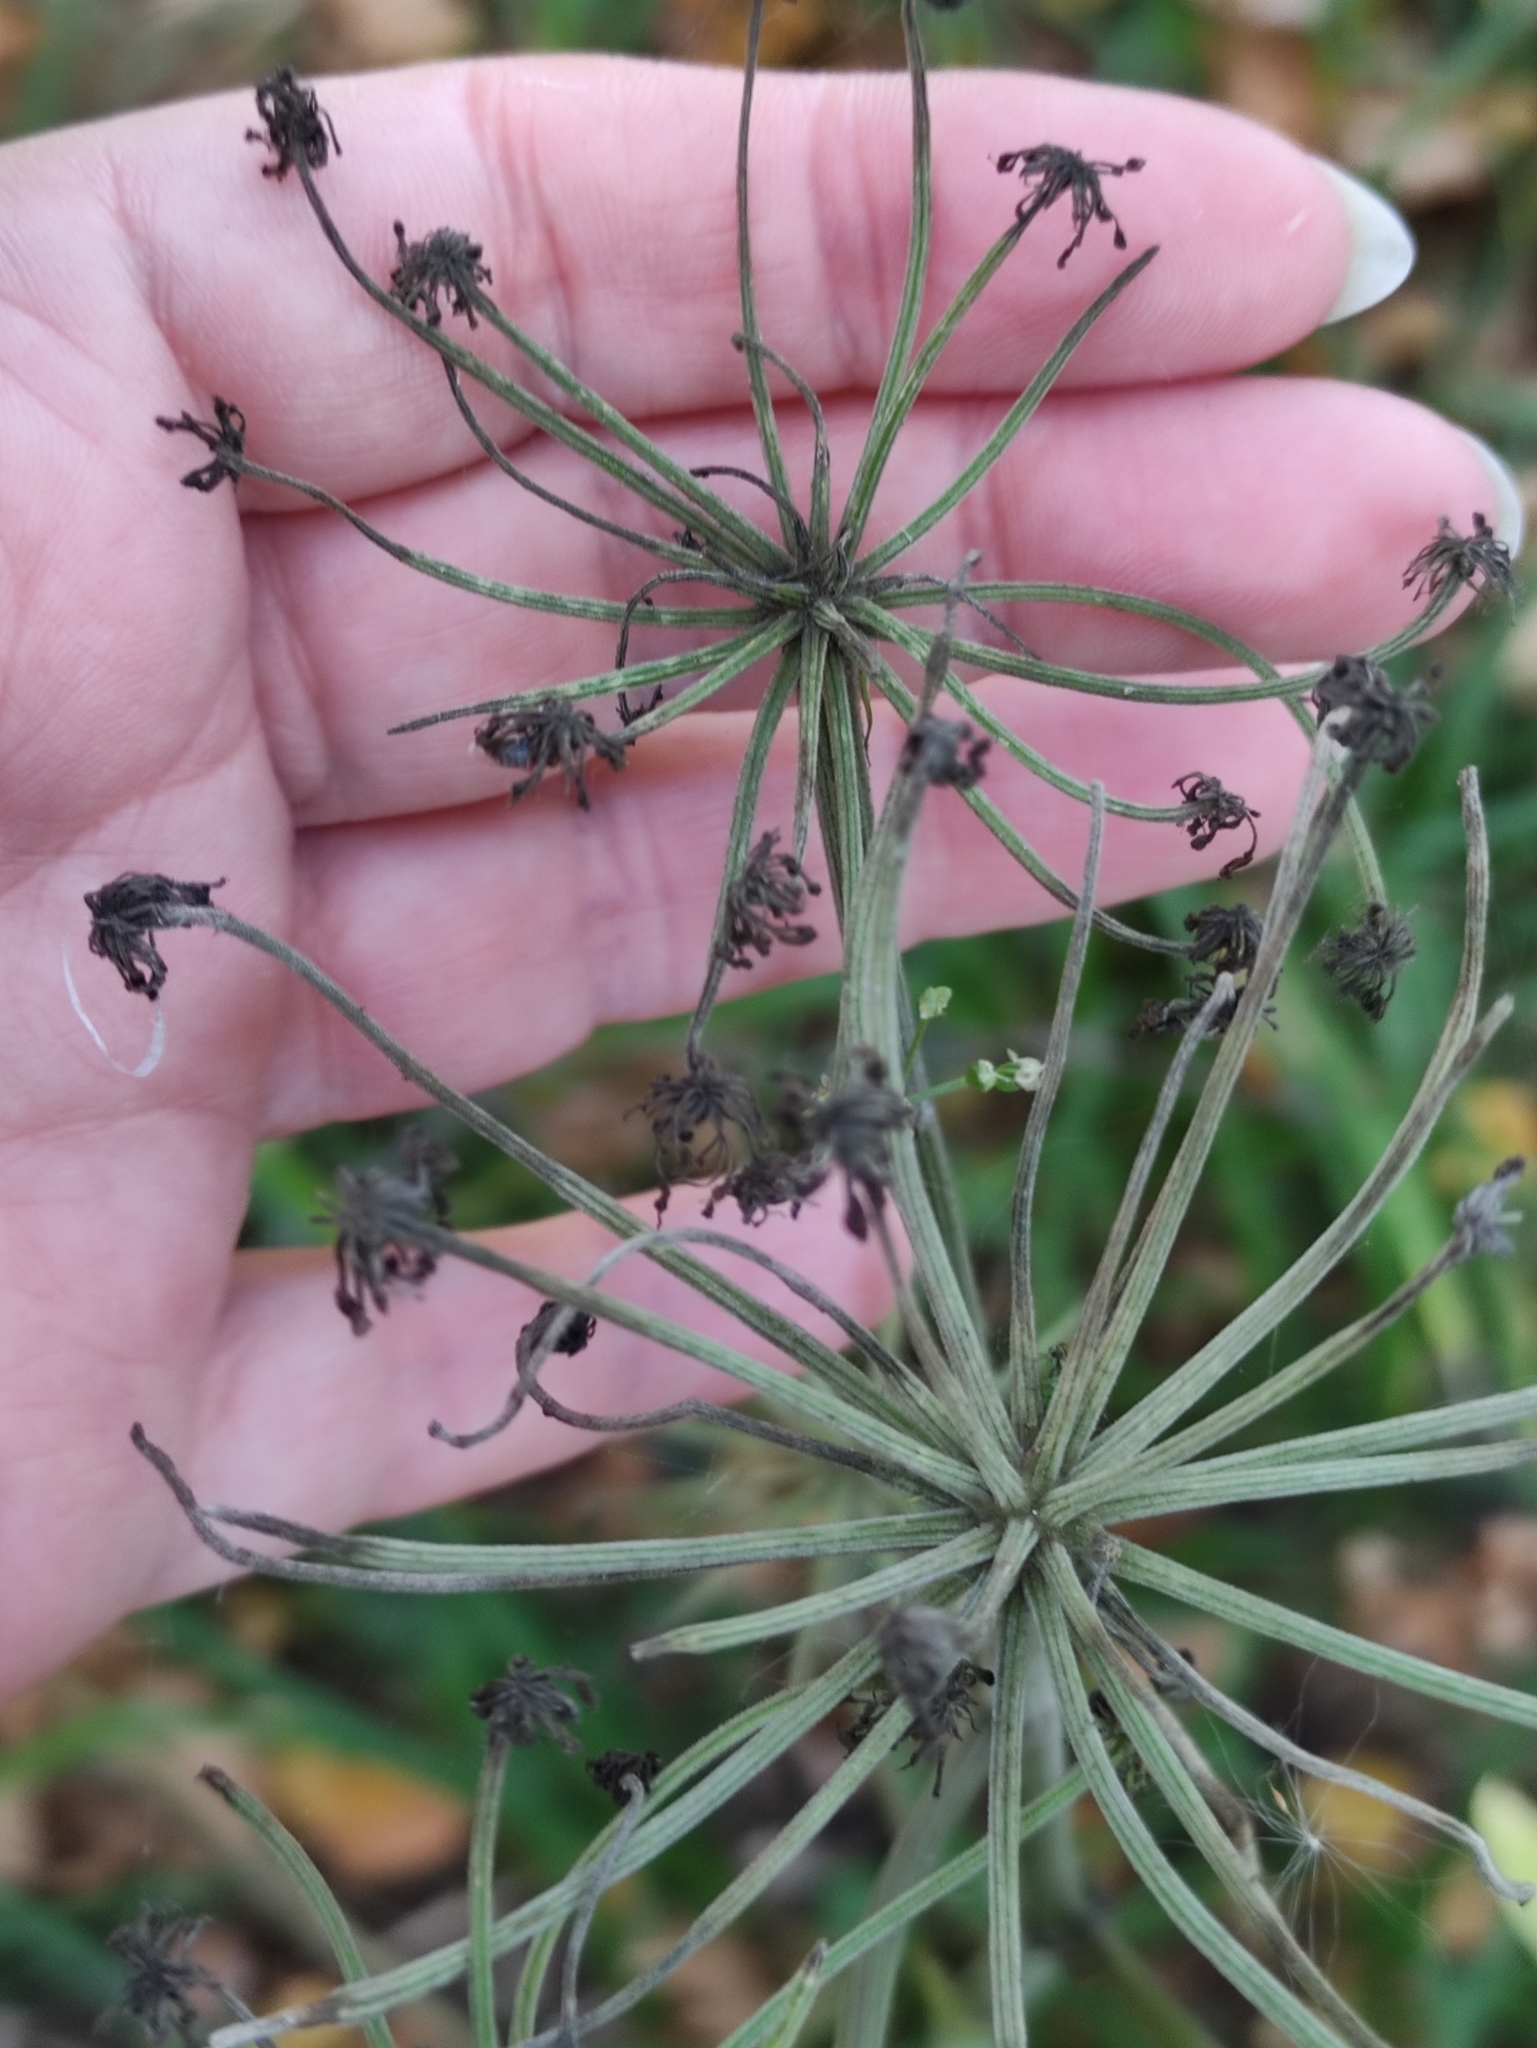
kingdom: Plantae
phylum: Tracheophyta
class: Magnoliopsida
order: Apiales
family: Apiaceae
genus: Angelica
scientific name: Angelica sylvestris
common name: Wild angelica
